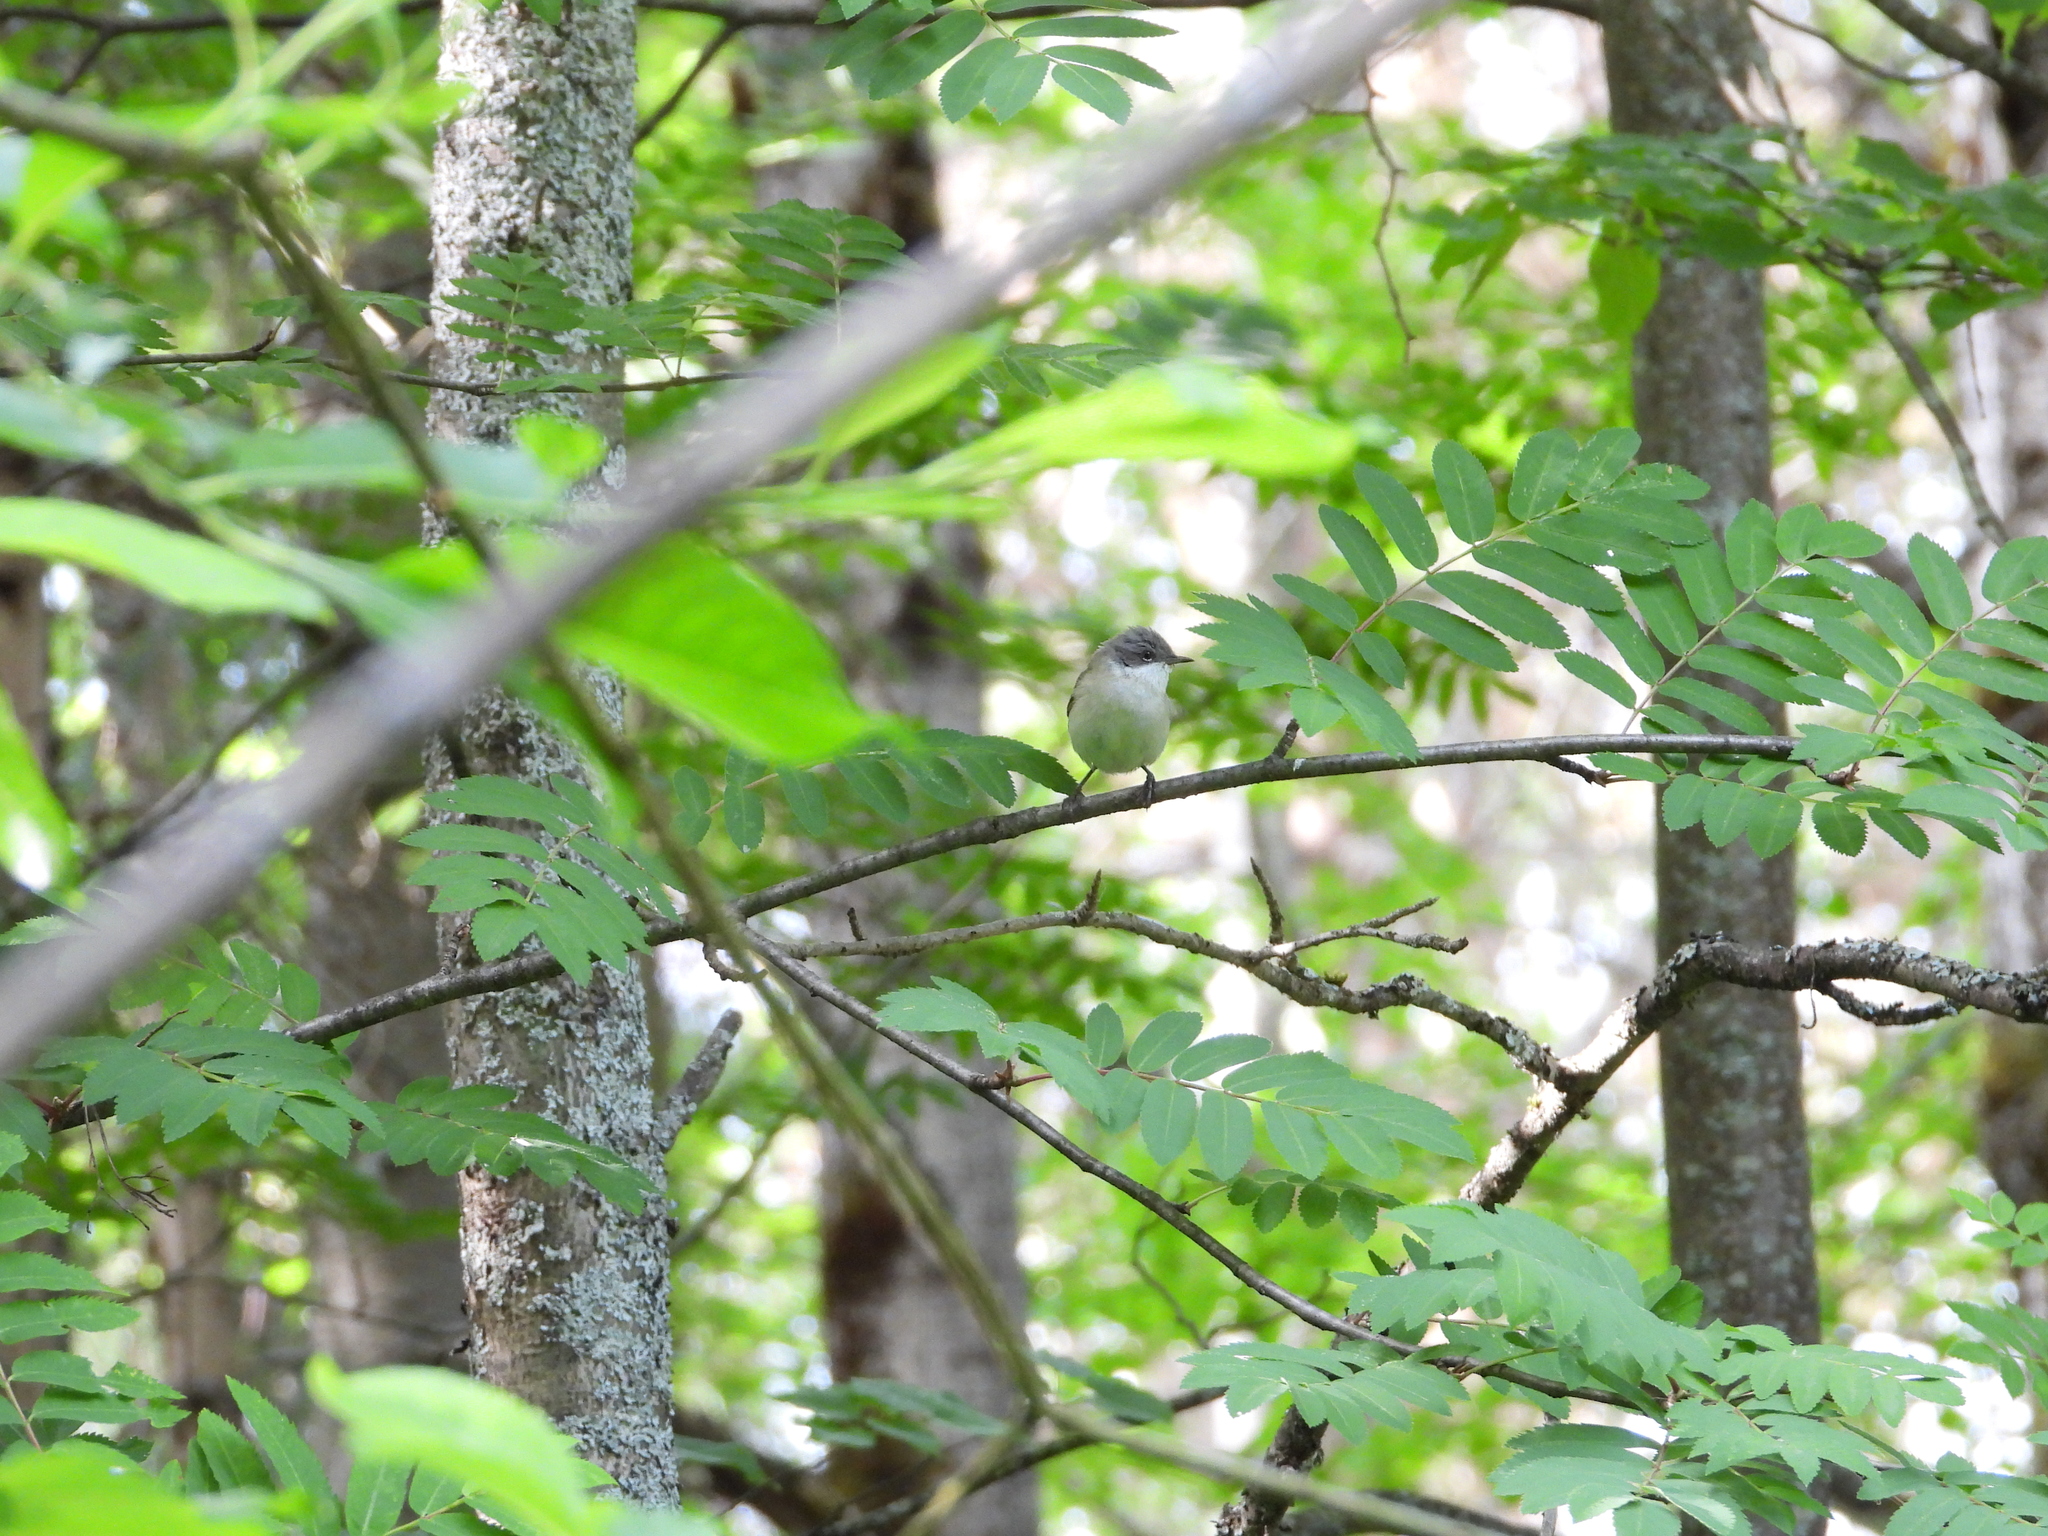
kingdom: Animalia
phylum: Chordata
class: Aves
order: Passeriformes
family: Sylviidae
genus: Sylvia
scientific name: Sylvia curruca
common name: Lesser whitethroat
